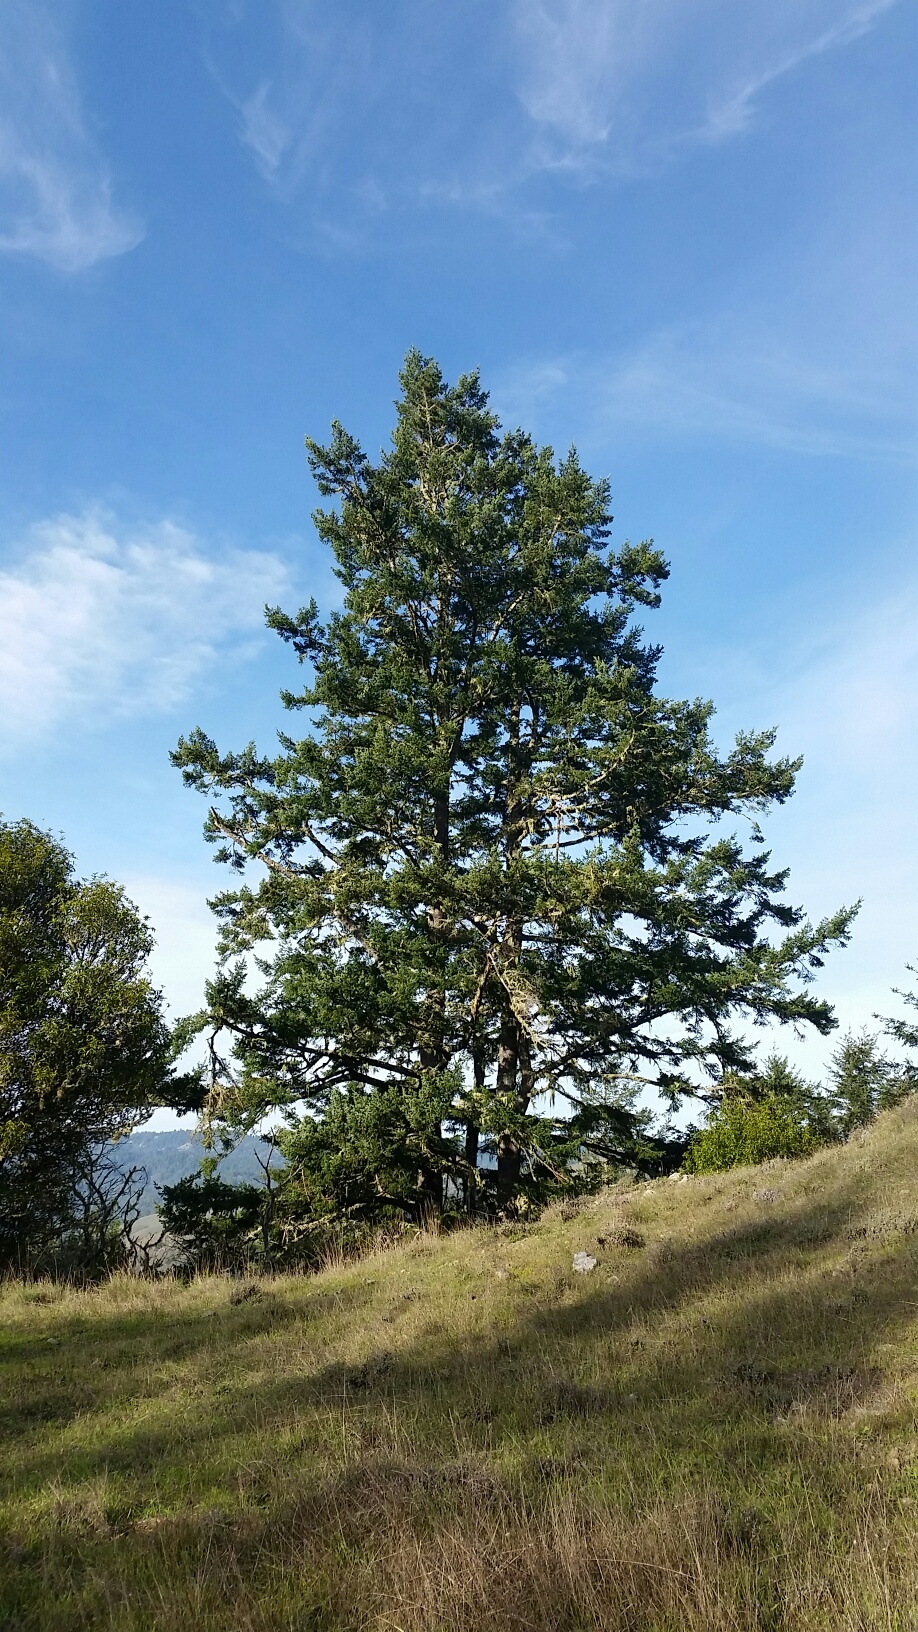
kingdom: Plantae
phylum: Tracheophyta
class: Pinopsida
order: Pinales
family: Pinaceae
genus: Pseudotsuga
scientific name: Pseudotsuga menziesii
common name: Douglas fir
